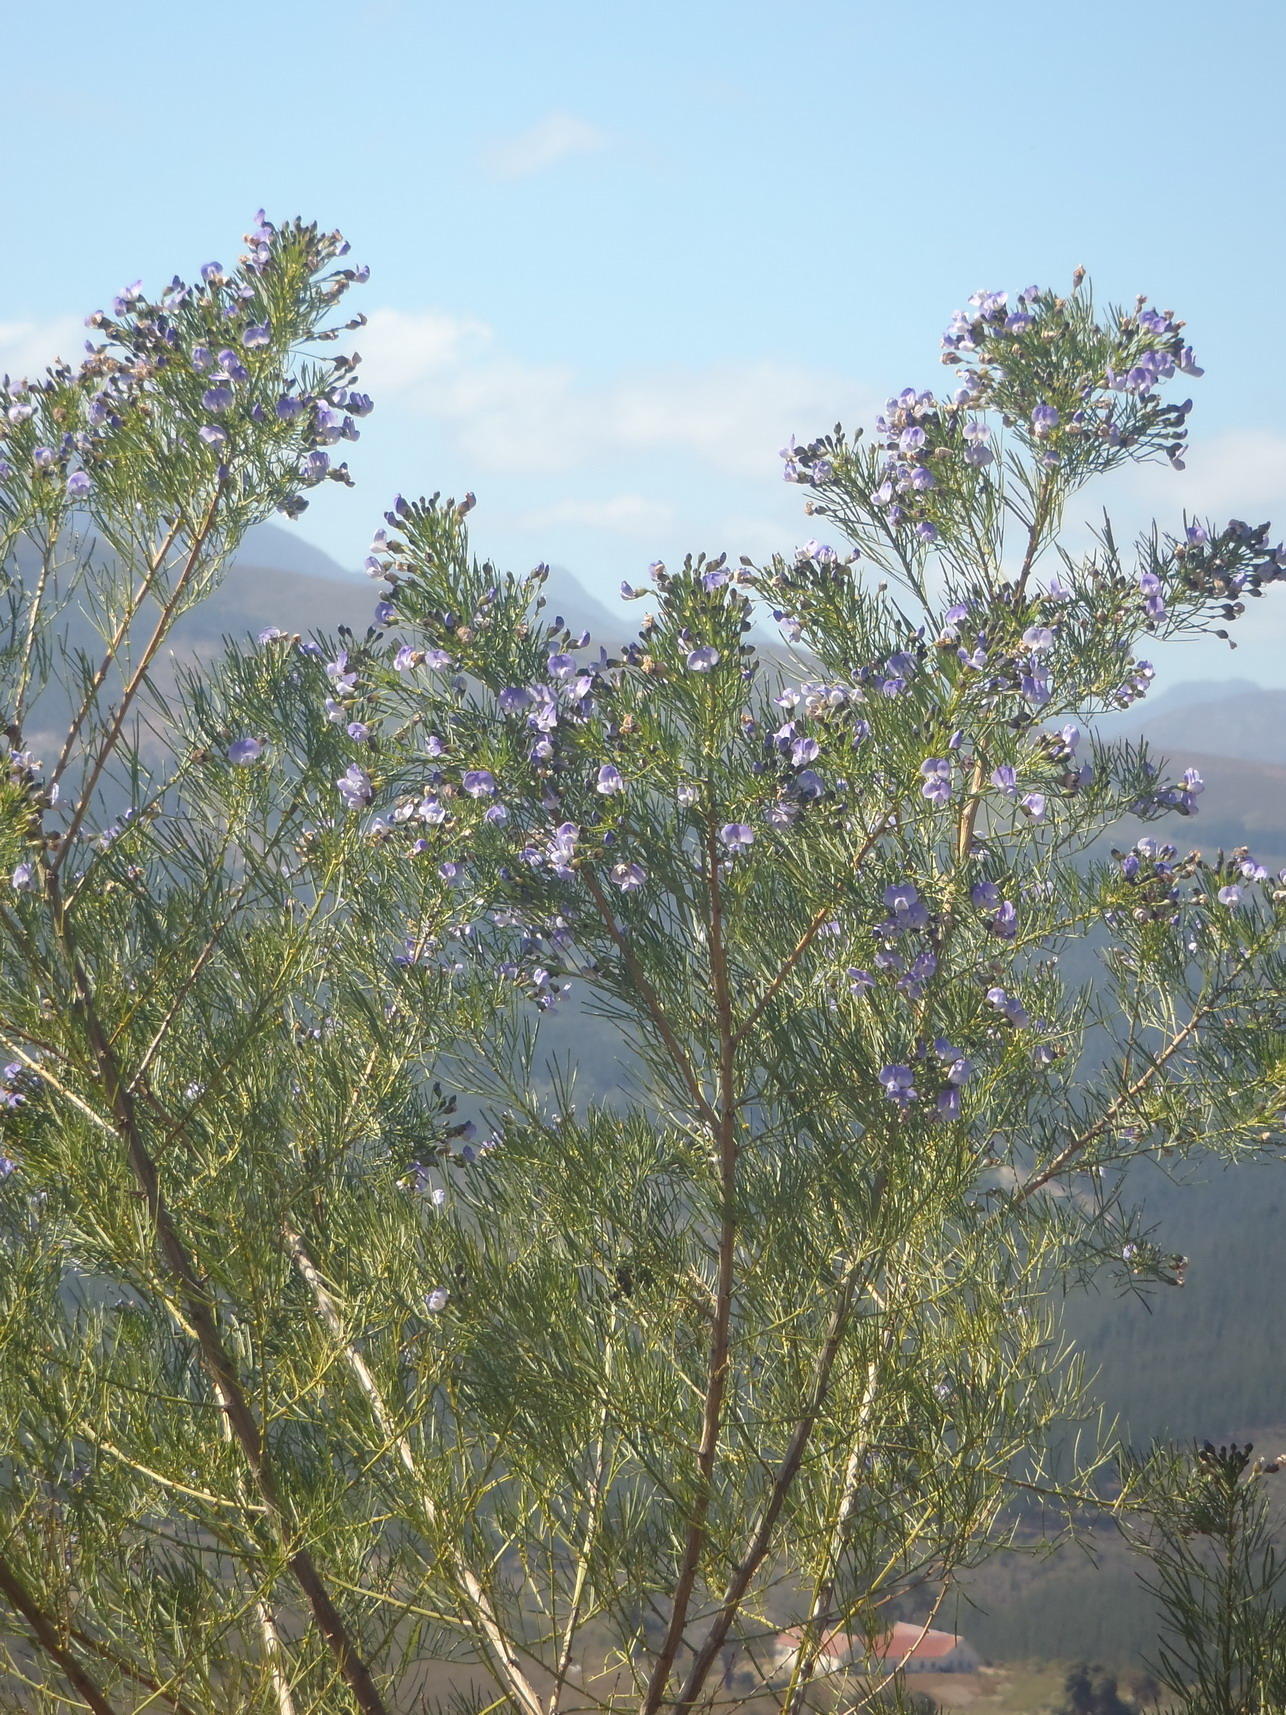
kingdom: Plantae
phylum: Tracheophyta
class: Magnoliopsida
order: Fabales
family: Fabaceae
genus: Psoralea
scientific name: Psoralea affinis
